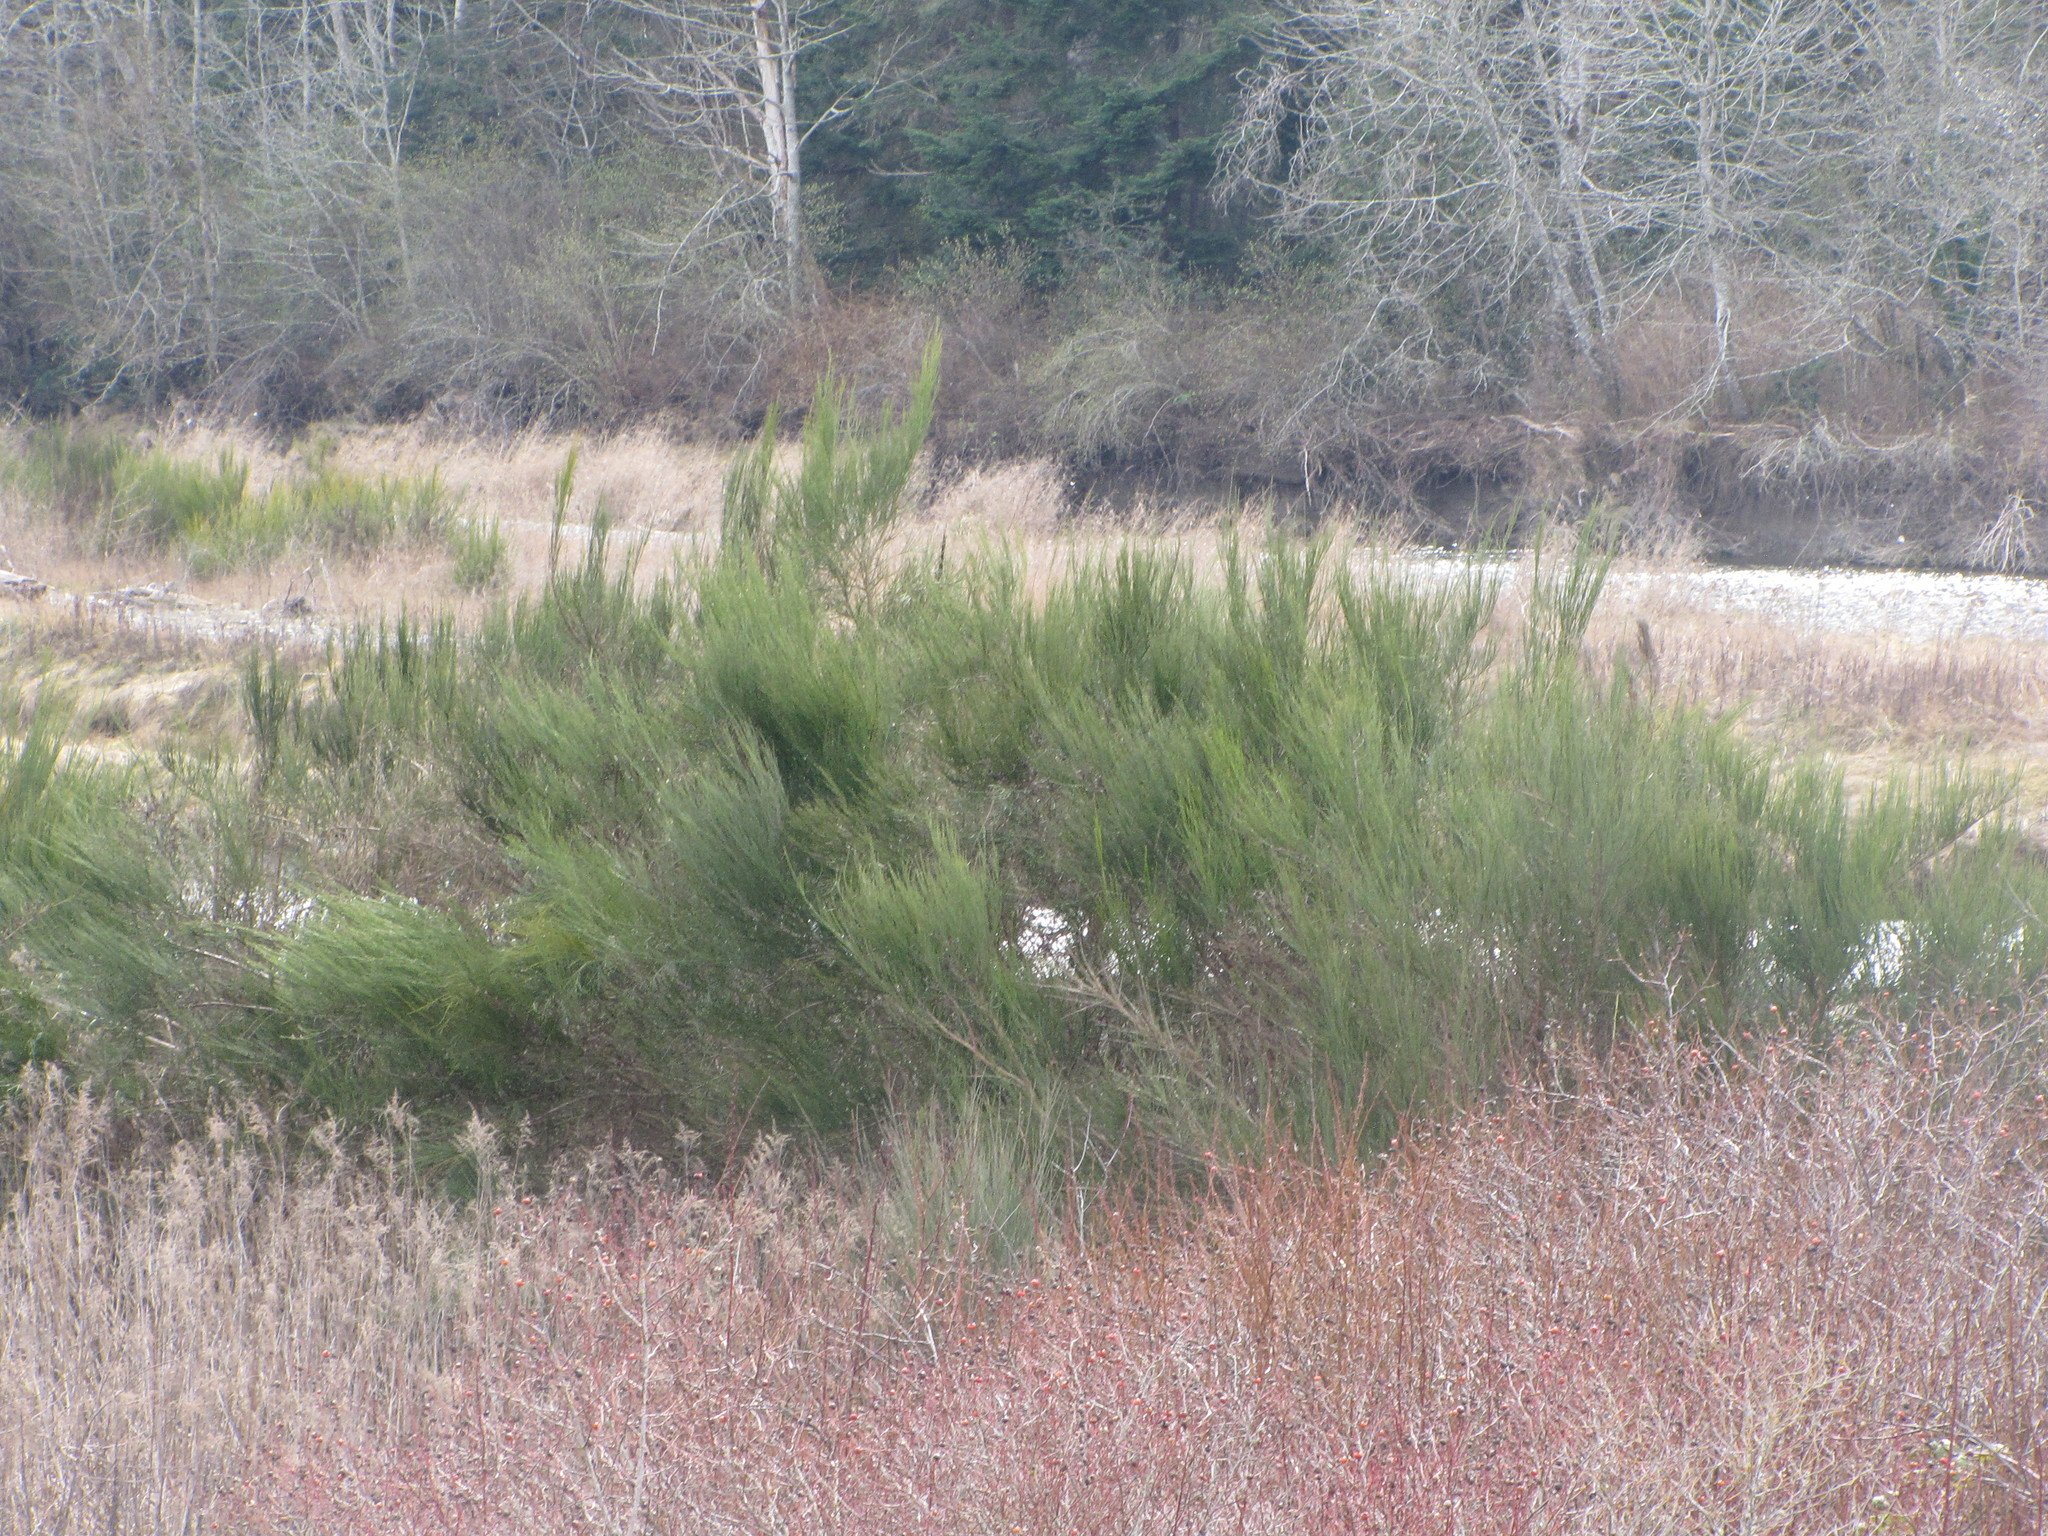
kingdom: Plantae
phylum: Tracheophyta
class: Magnoliopsida
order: Fabales
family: Fabaceae
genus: Cytisus
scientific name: Cytisus scoparius
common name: Scotch broom
